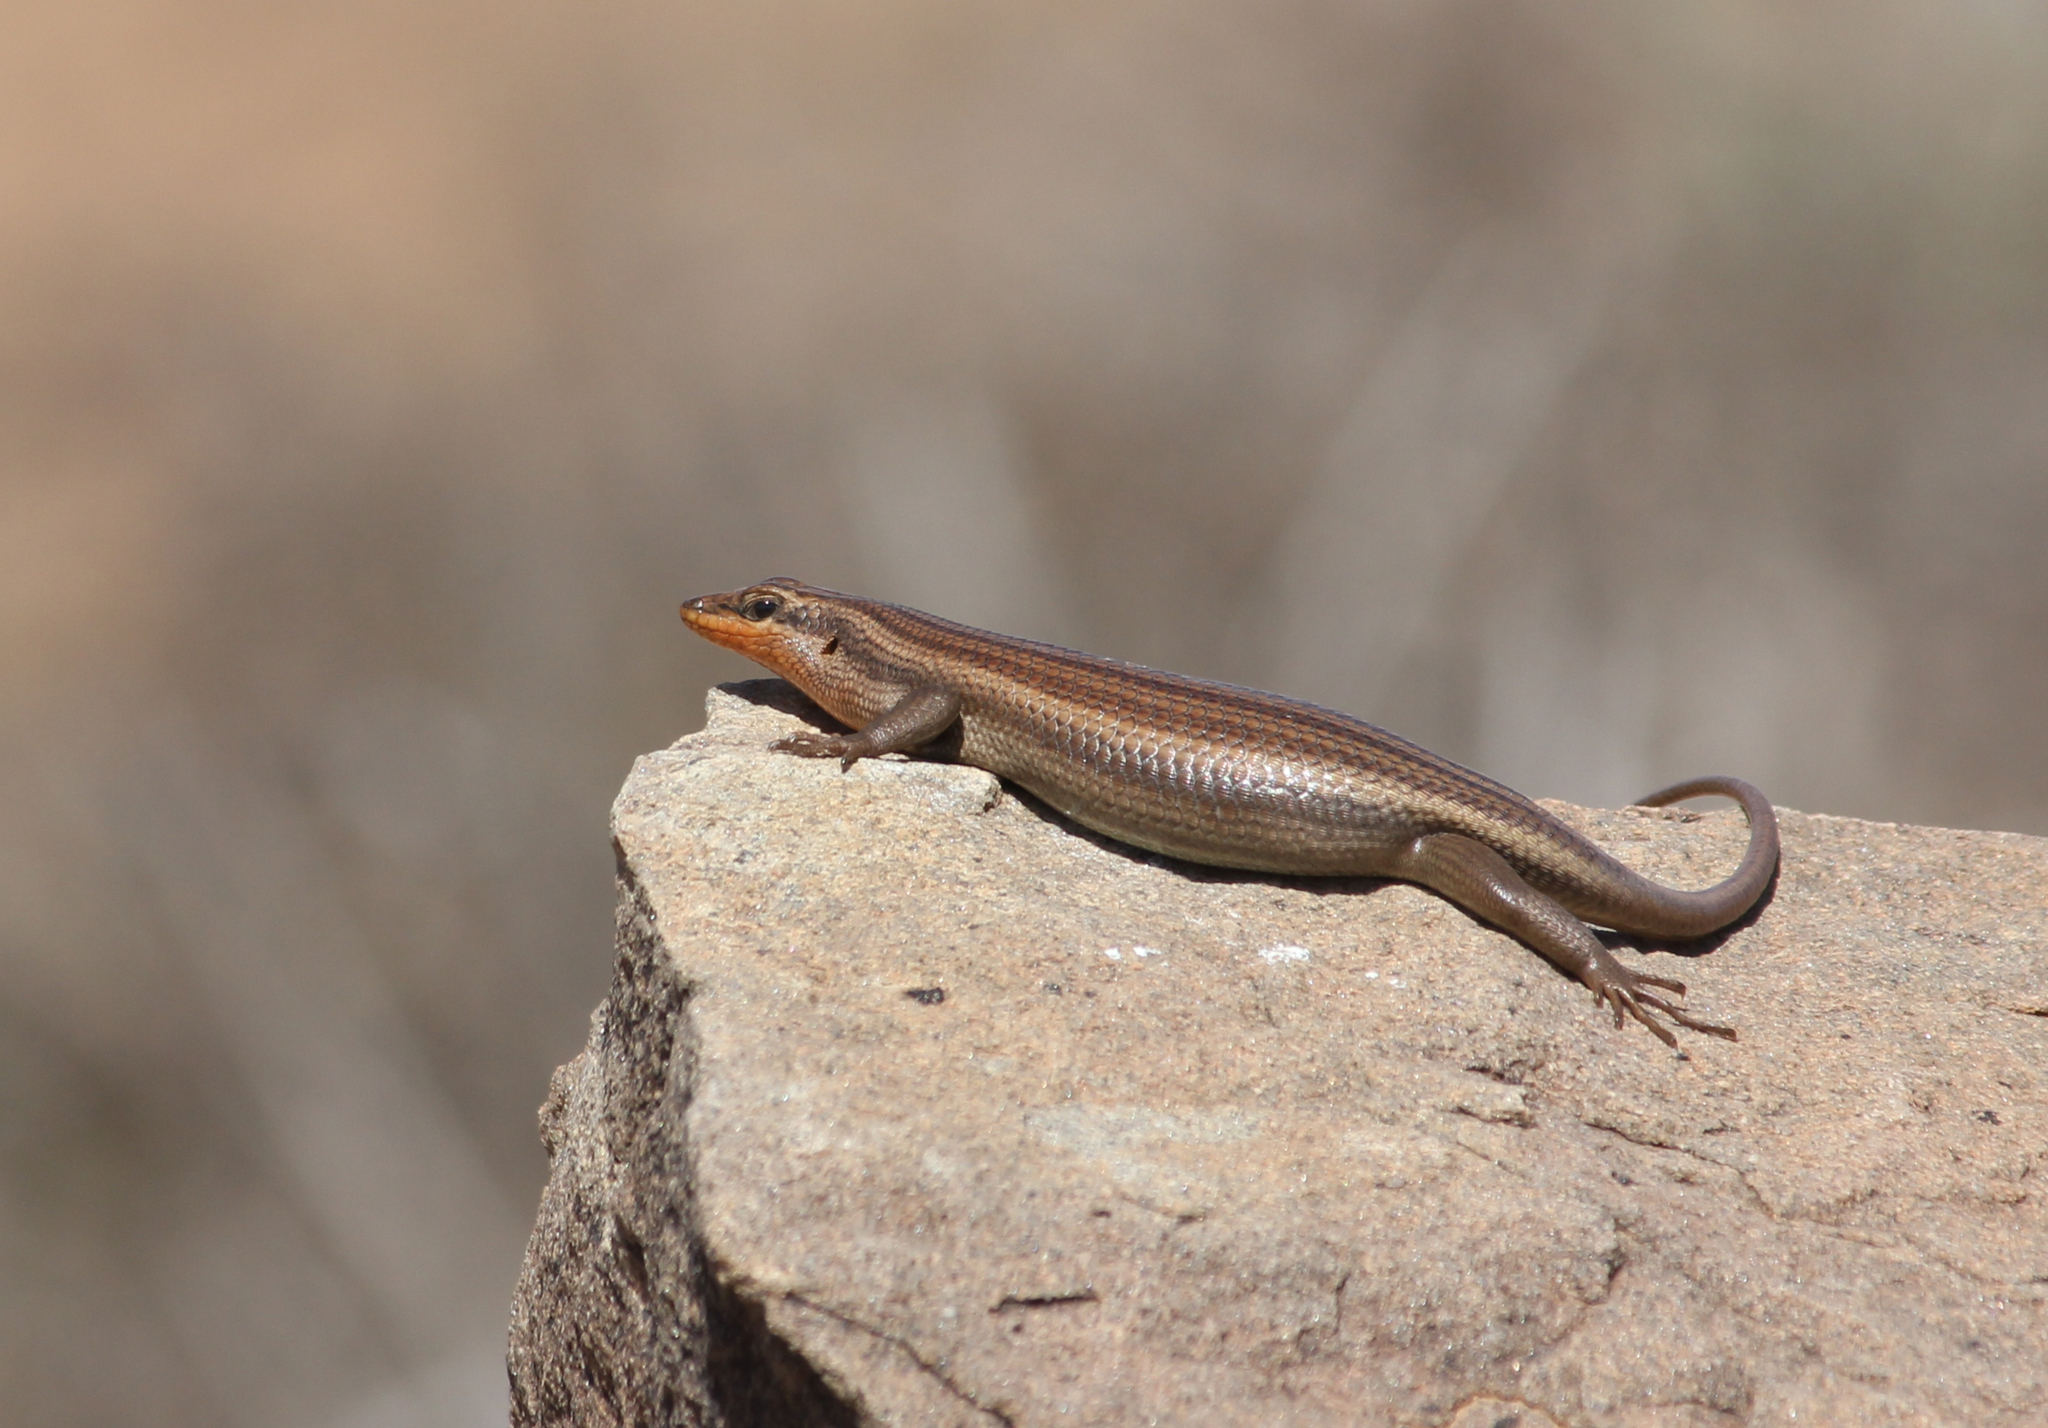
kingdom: Animalia
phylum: Chordata
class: Squamata
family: Scincidae
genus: Trachylepis
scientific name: Trachylepis sulcata
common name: Western rock skink
